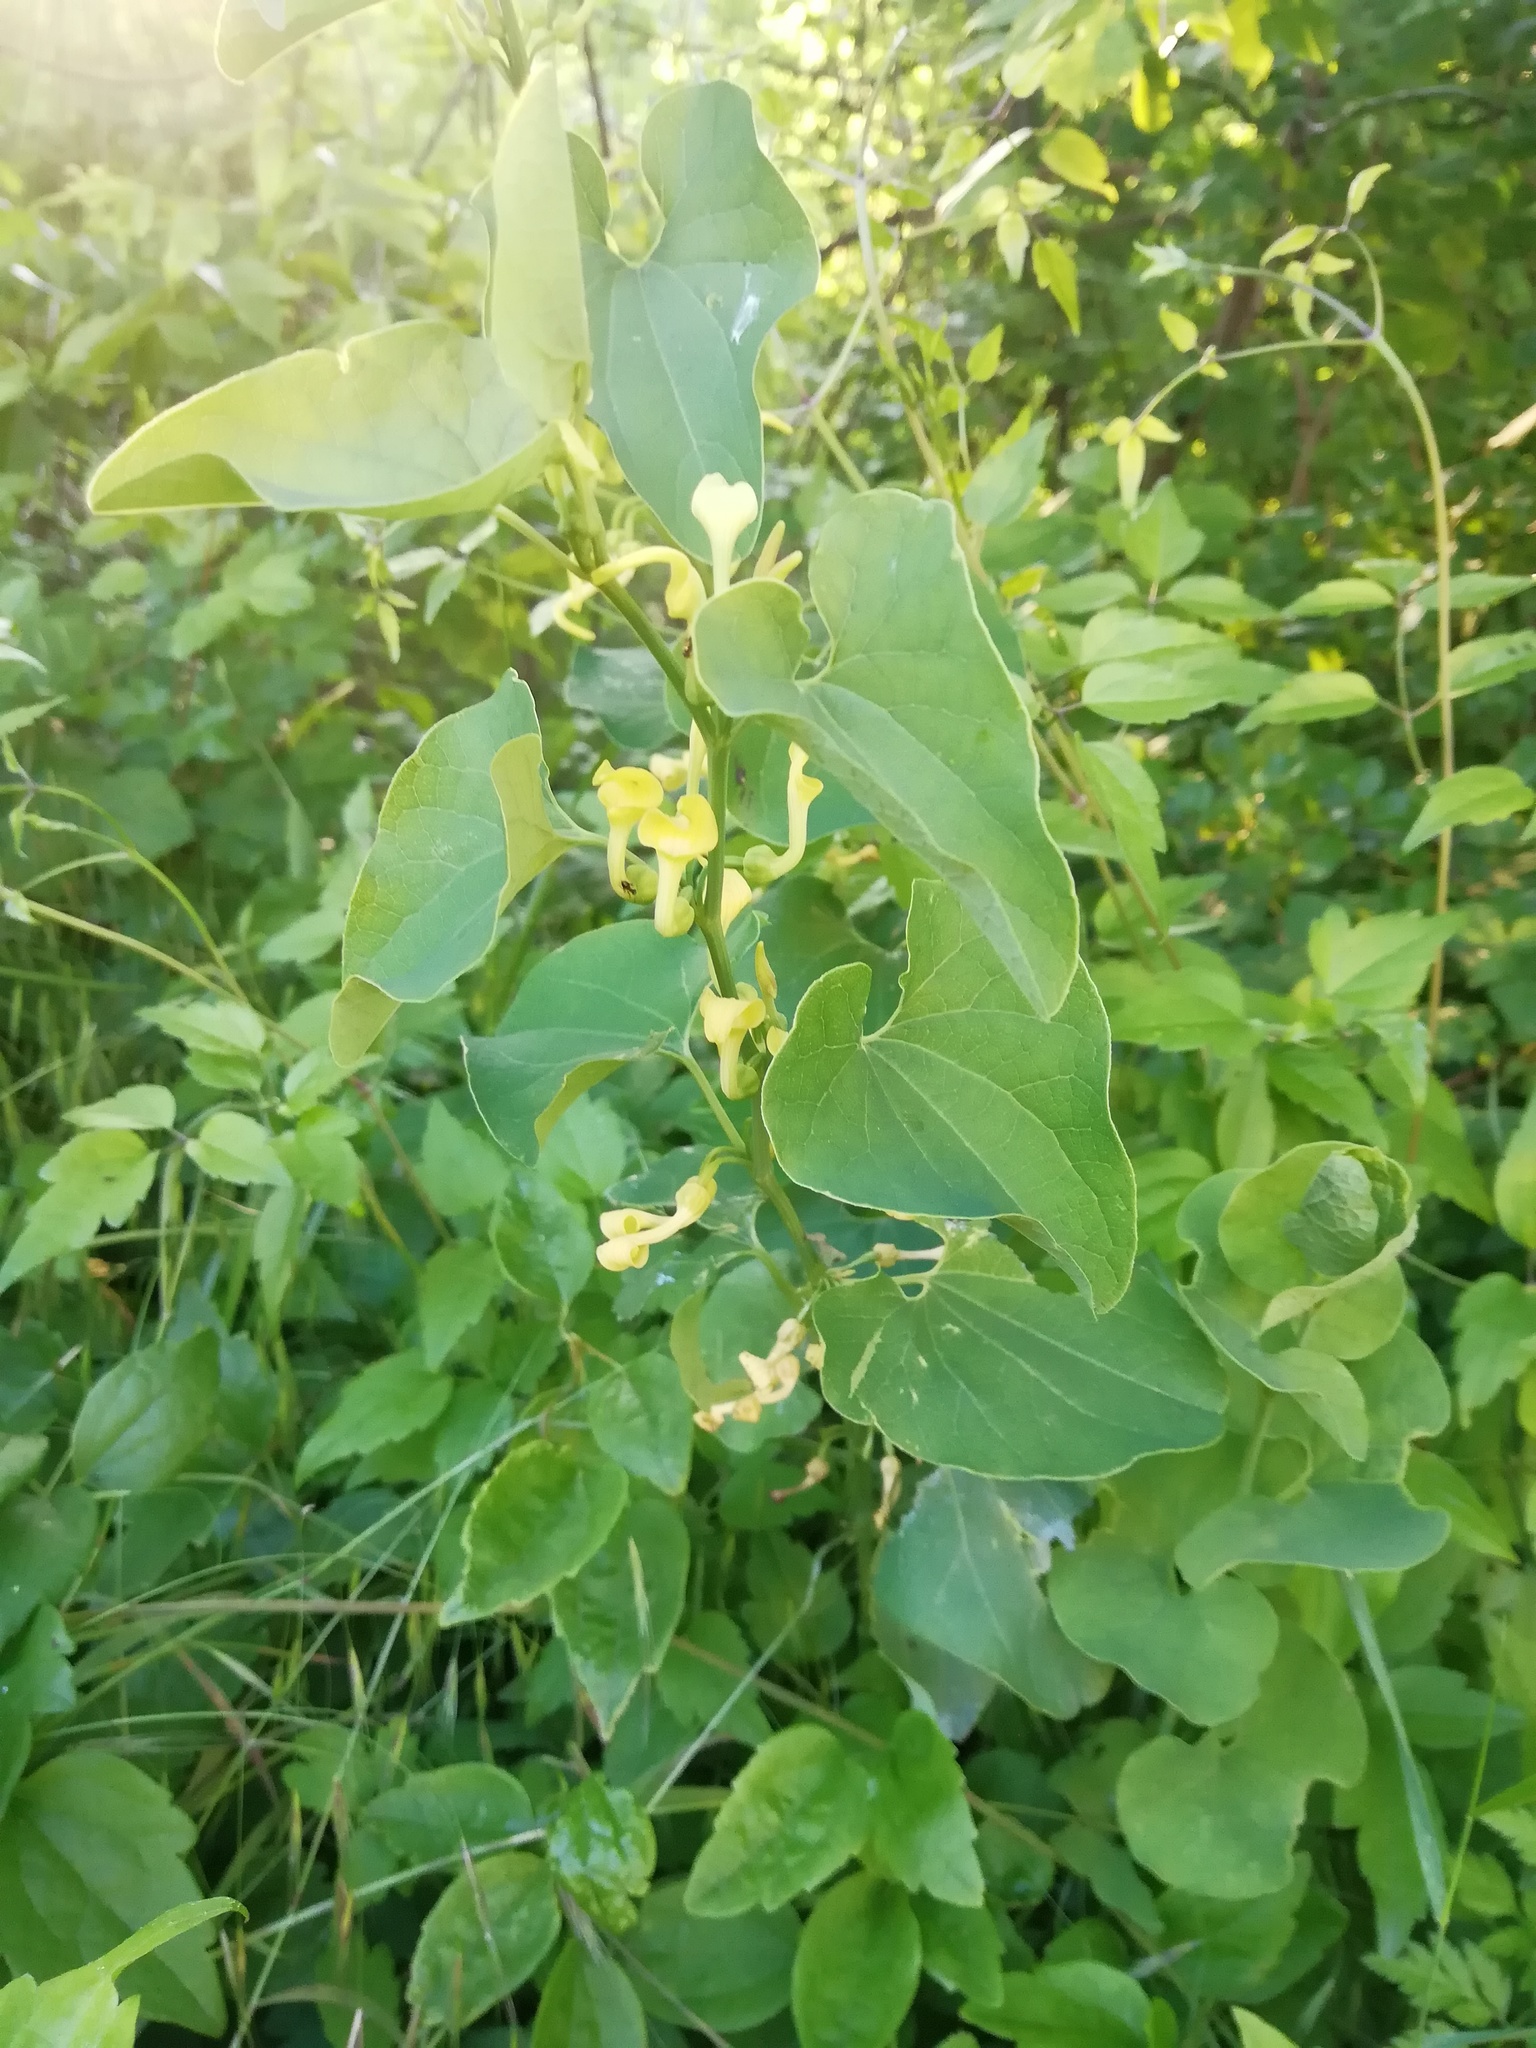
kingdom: Plantae
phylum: Tracheophyta
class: Magnoliopsida
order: Piperales
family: Aristolochiaceae
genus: Aristolochia
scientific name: Aristolochia clematitis
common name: Birthwort
